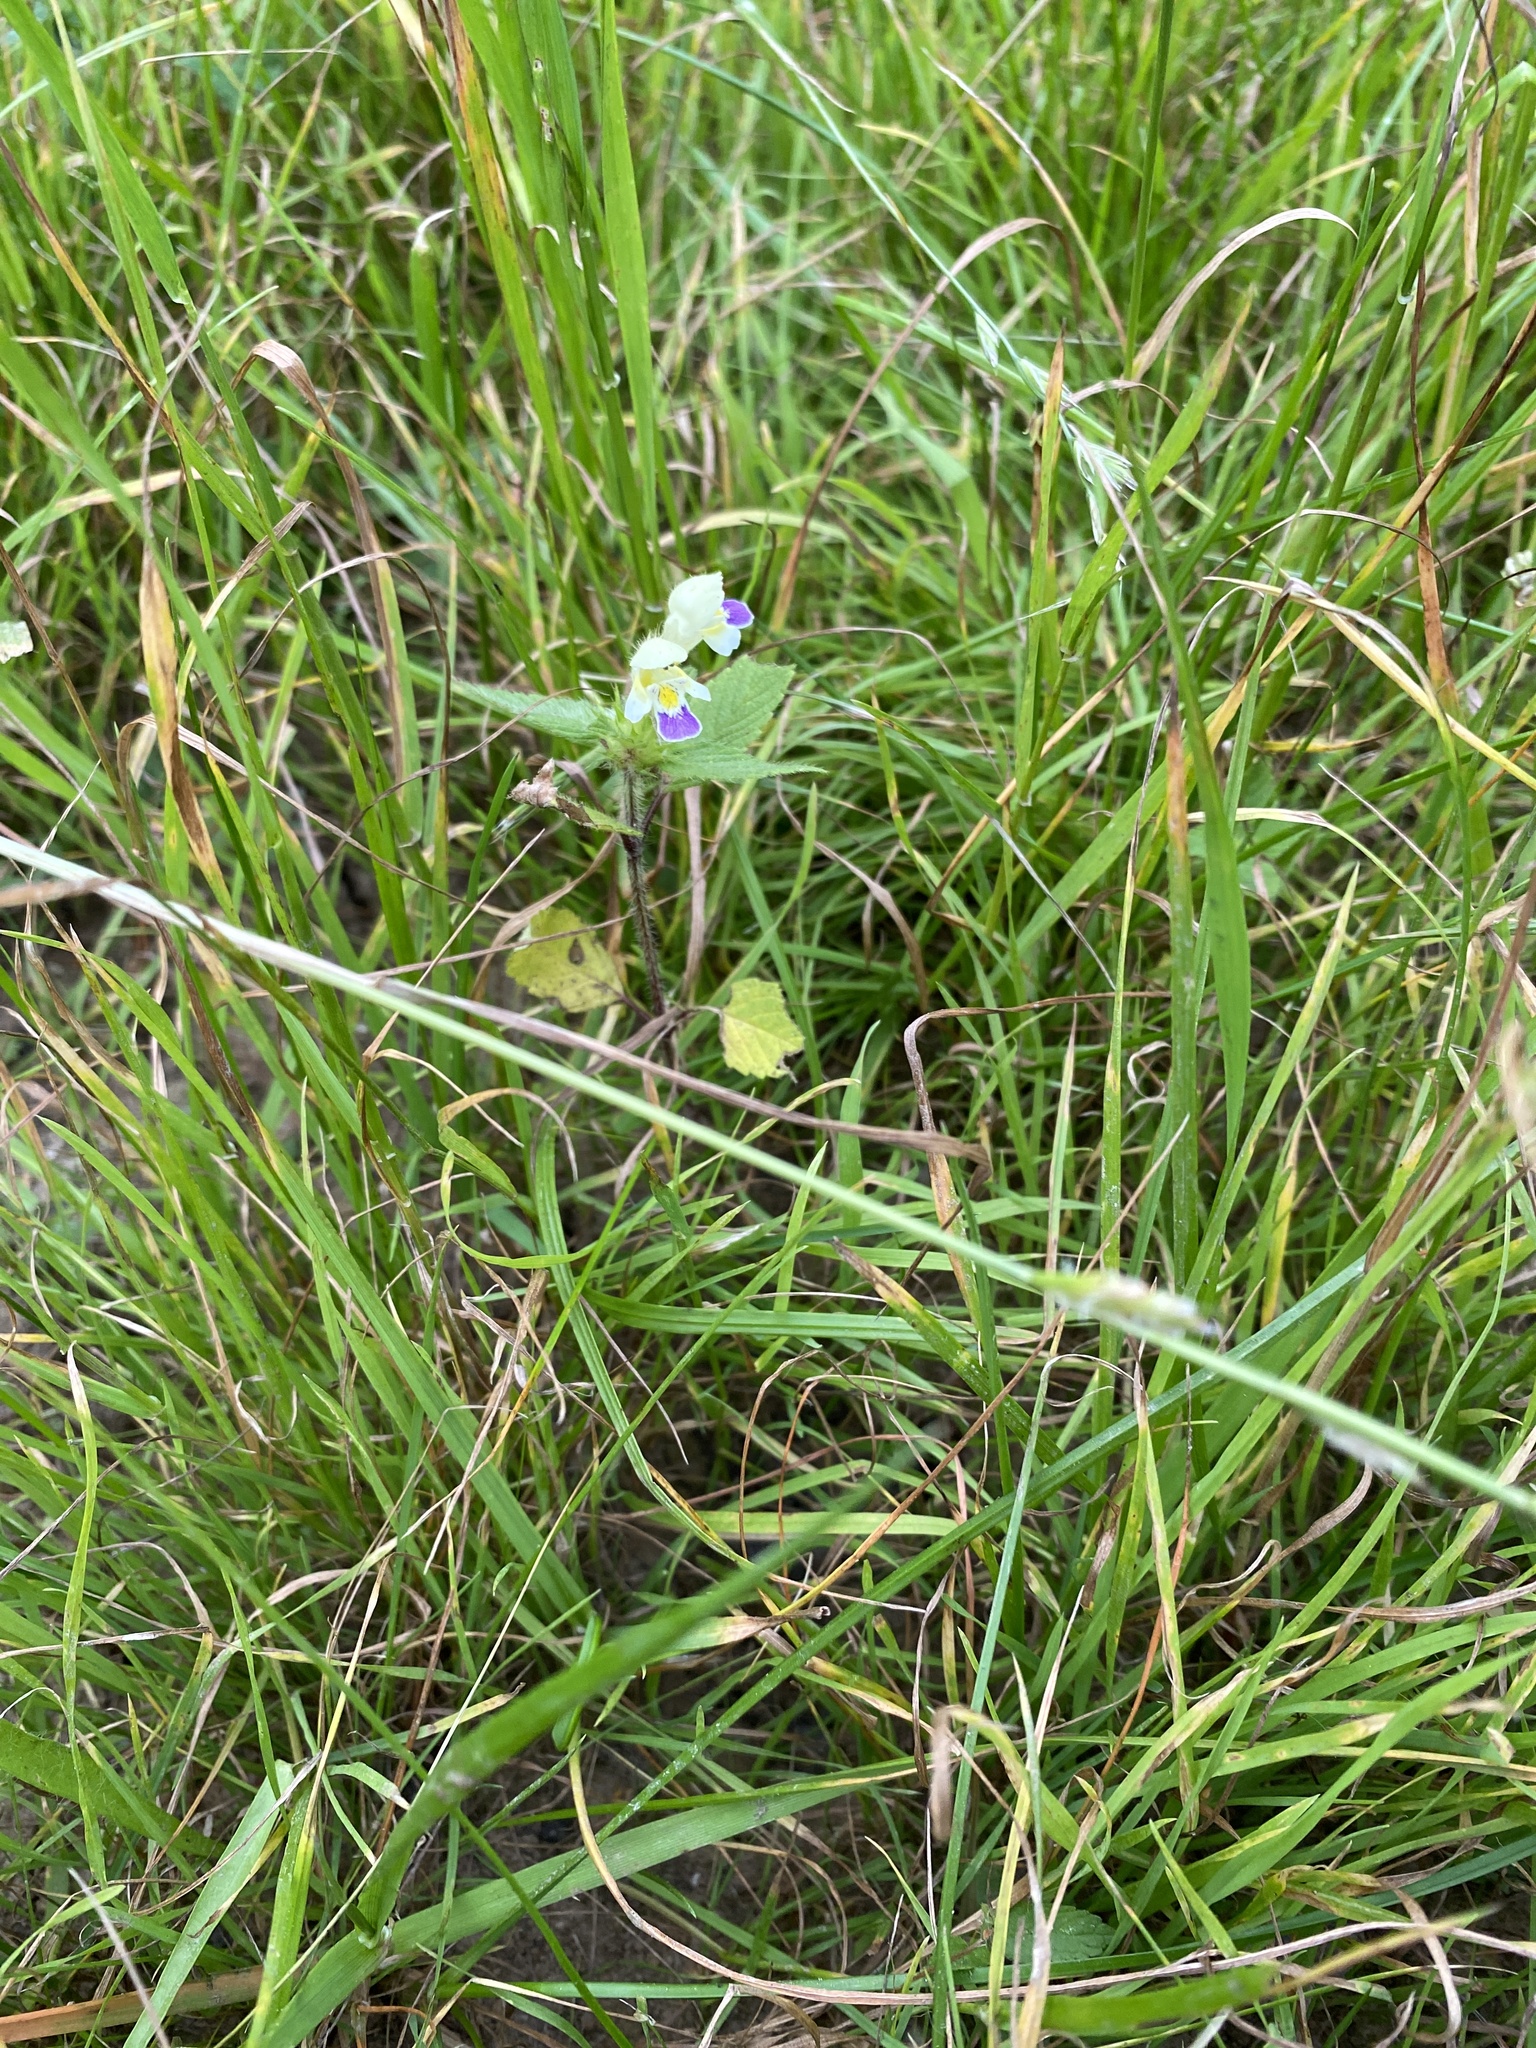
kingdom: Plantae
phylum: Tracheophyta
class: Magnoliopsida
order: Lamiales
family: Lamiaceae
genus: Galeopsis
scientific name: Galeopsis speciosa
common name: Large-flowered hemp-nettle
